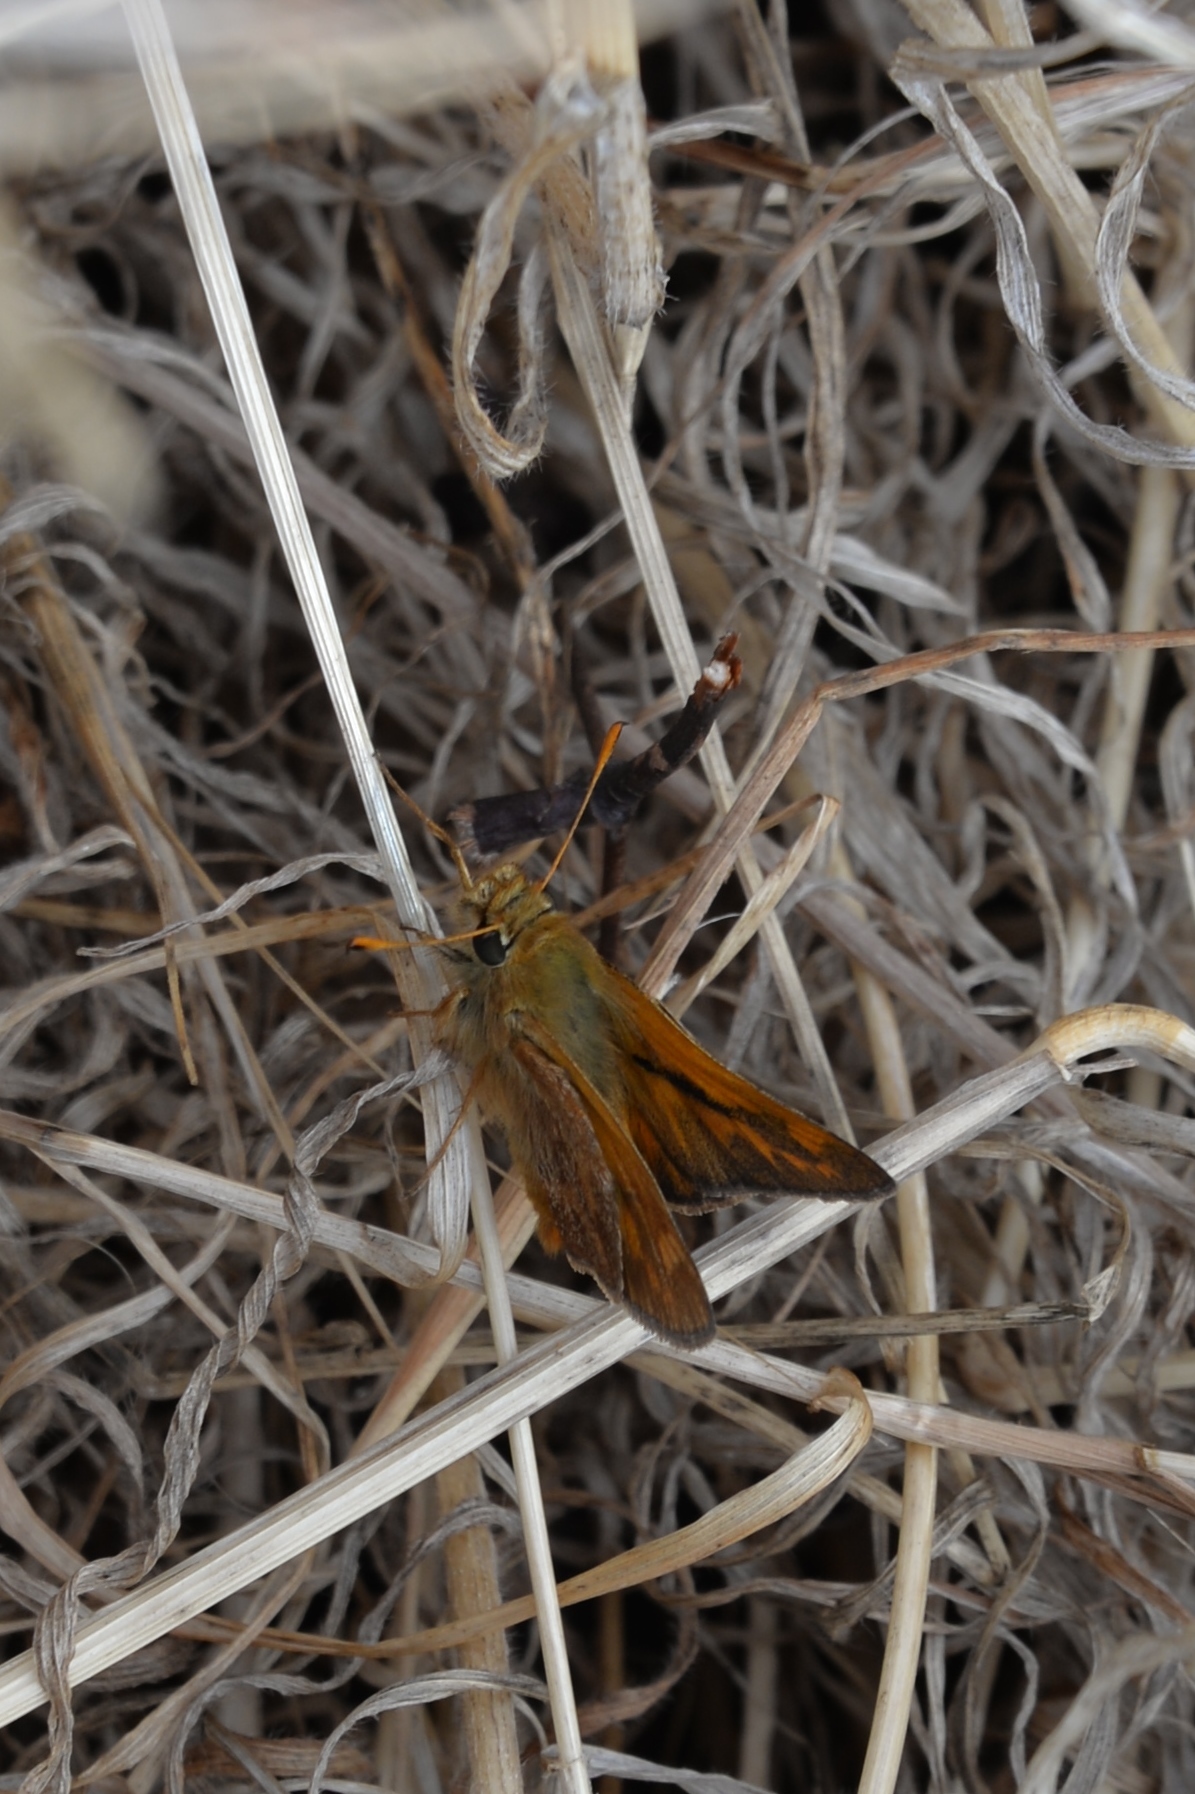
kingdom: Animalia
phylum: Arthropoda
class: Insecta
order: Lepidoptera
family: Hesperiidae
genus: Ochlodes
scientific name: Ochlodes sylvanoides
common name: Woodland skipper
